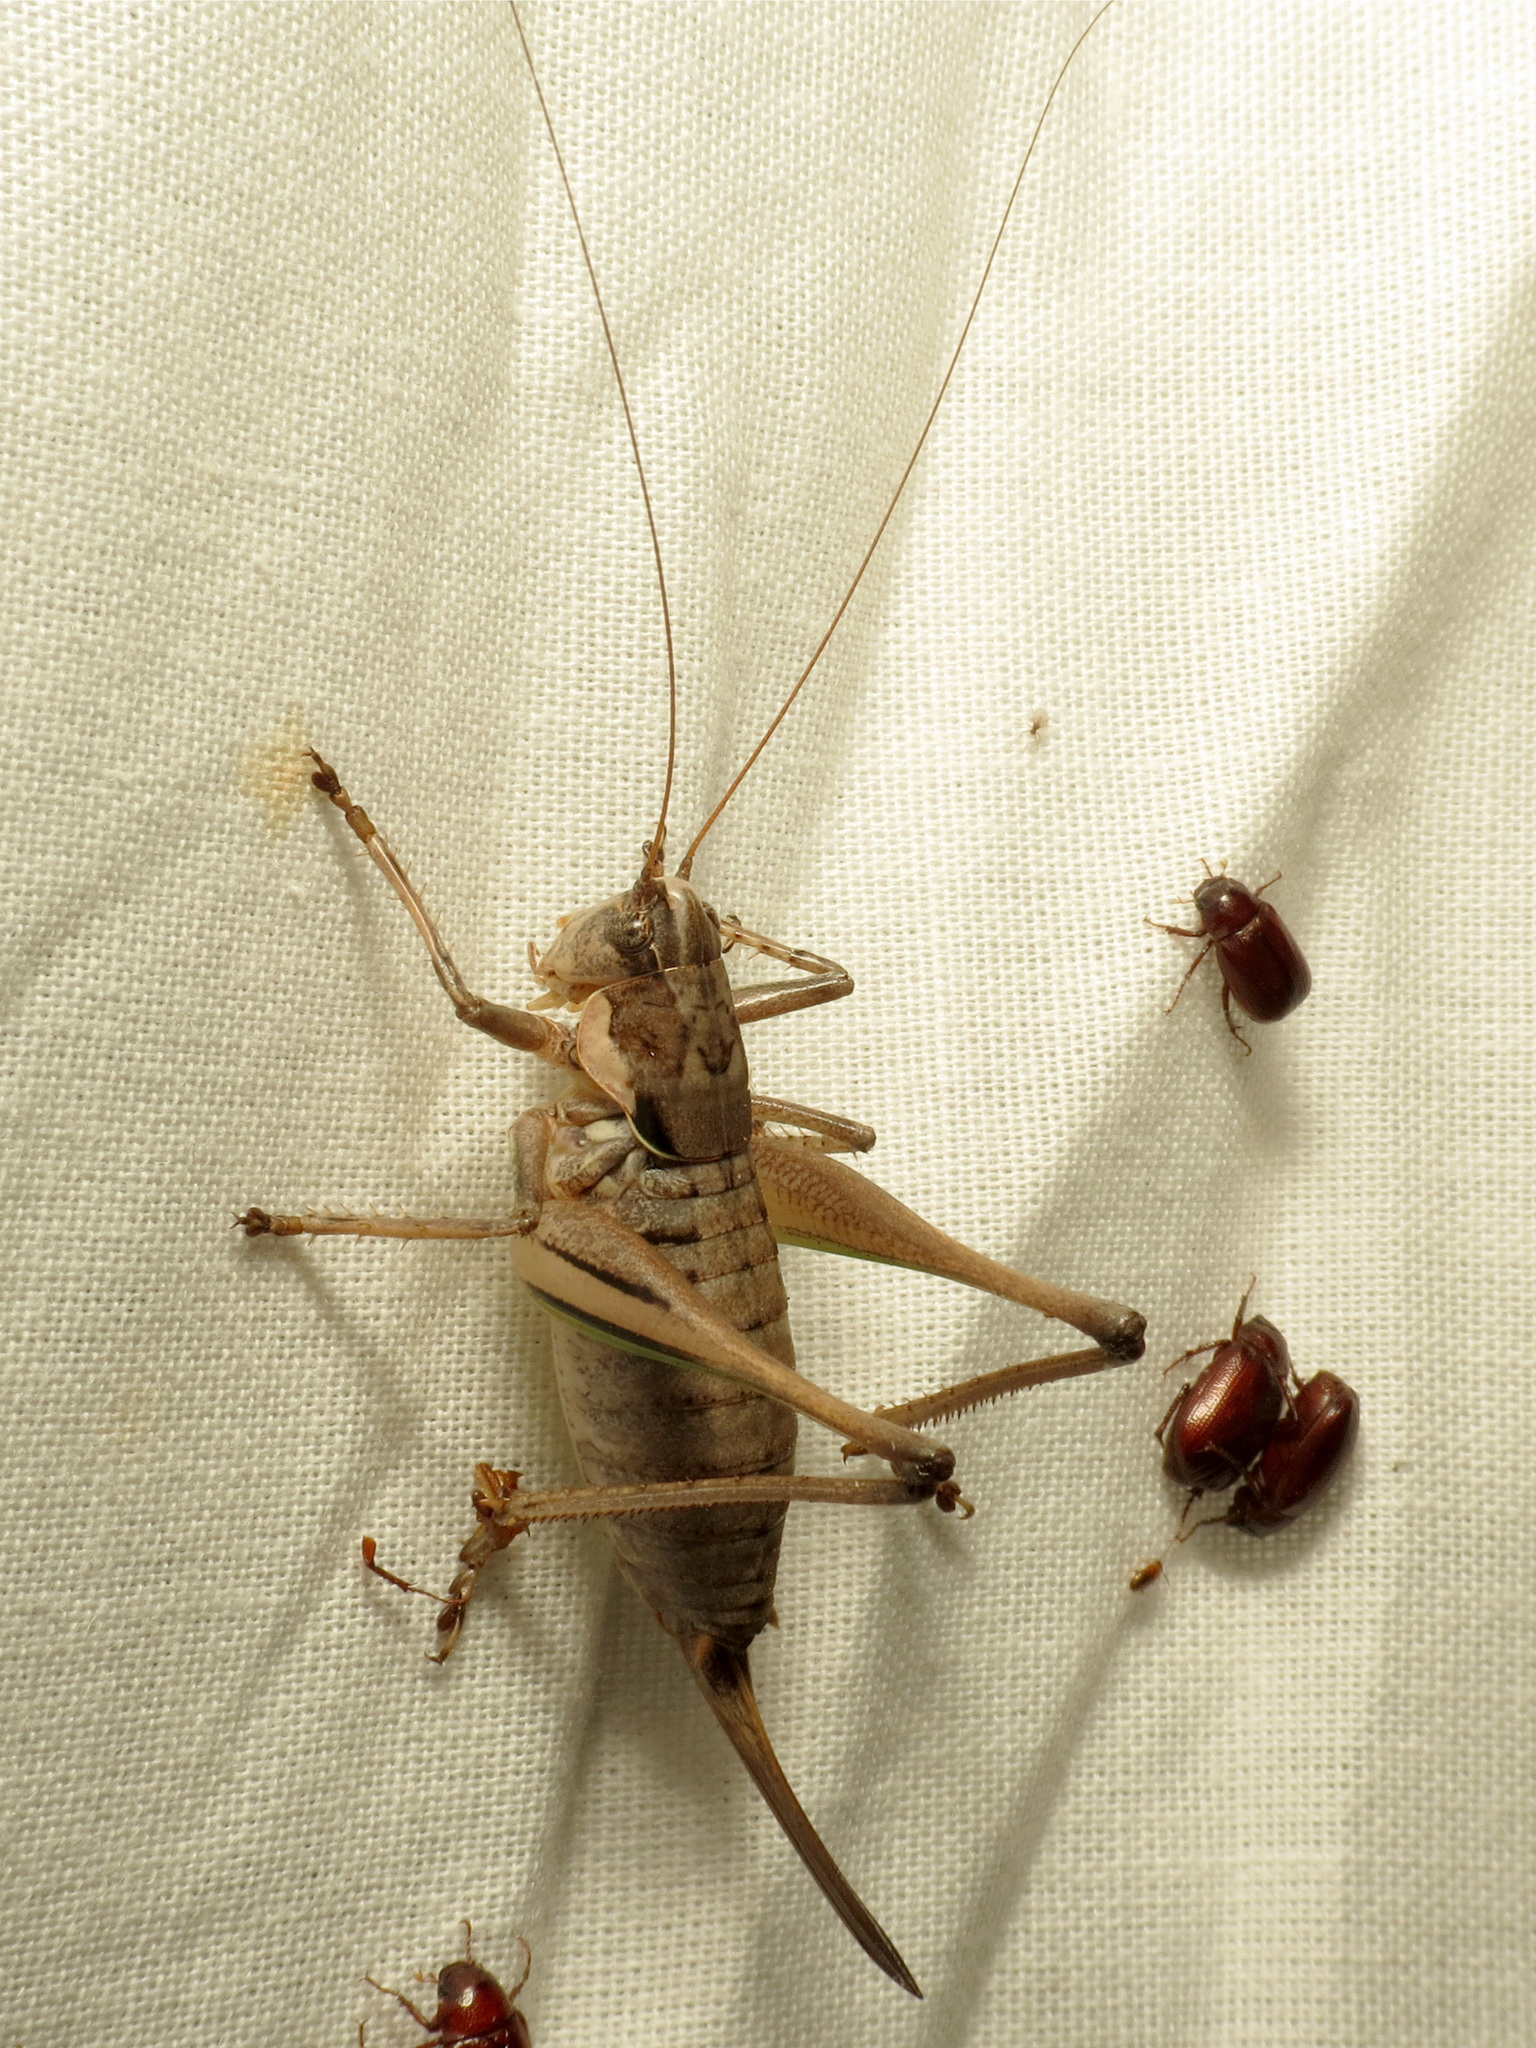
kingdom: Animalia
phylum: Arthropoda
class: Insecta
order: Orthoptera
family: Tettigoniidae
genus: Eremopedes
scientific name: Eremopedes balli
